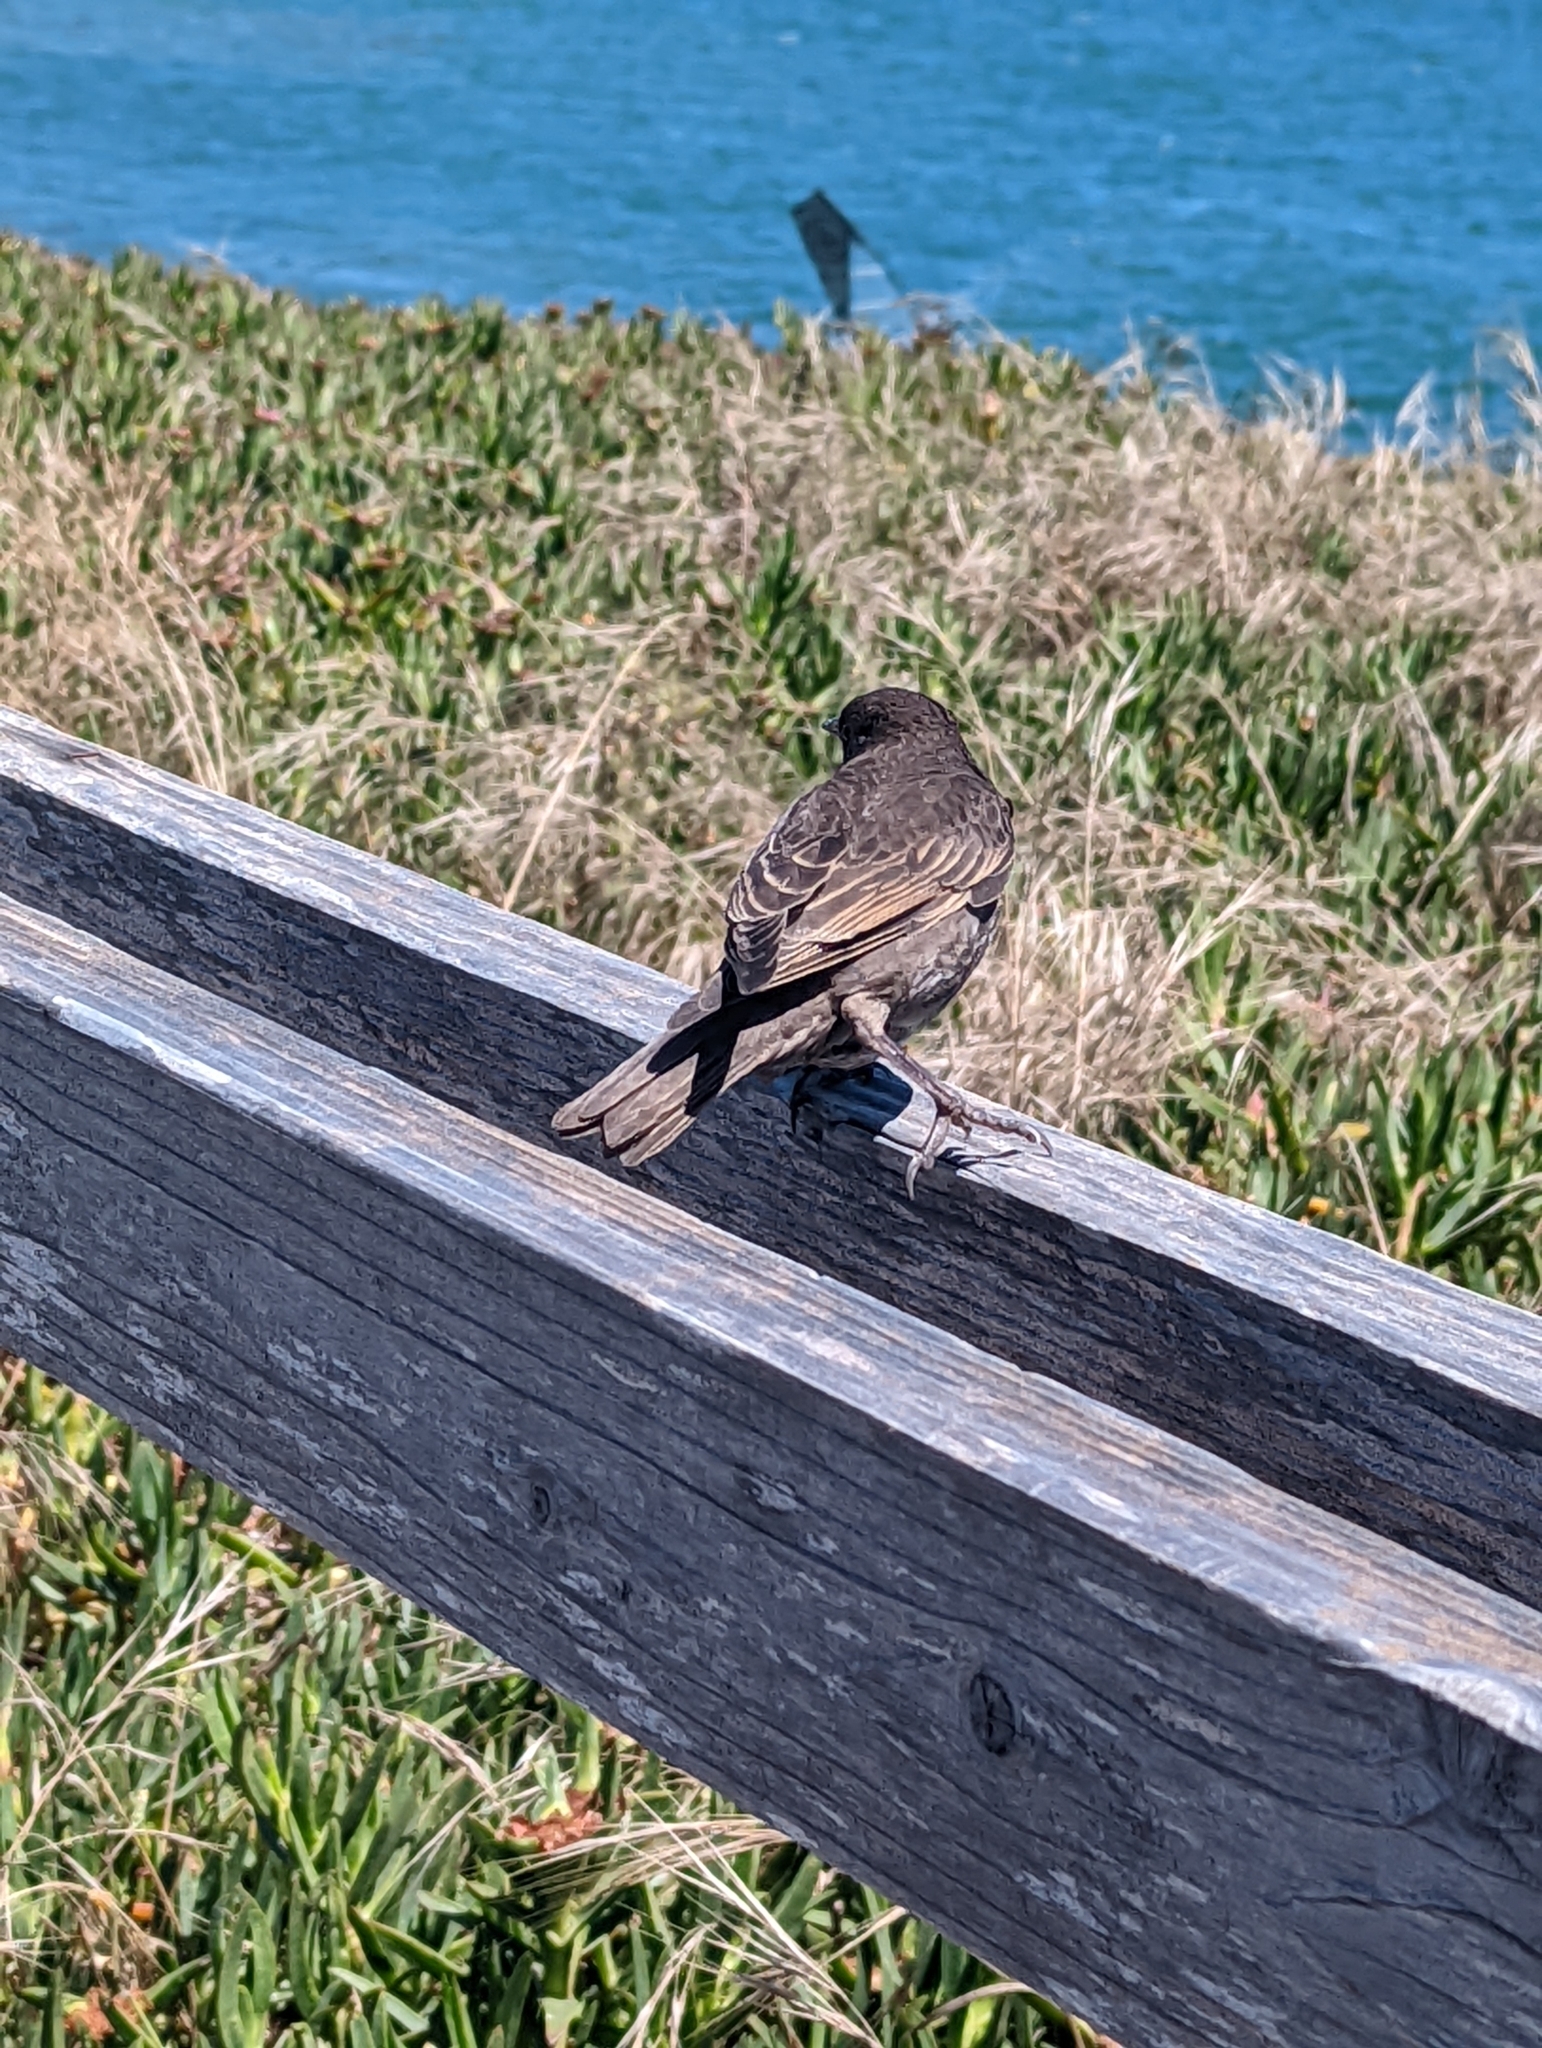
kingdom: Animalia
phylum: Chordata
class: Aves
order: Passeriformes
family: Sturnidae
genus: Sturnus
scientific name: Sturnus vulgaris
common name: Common starling
